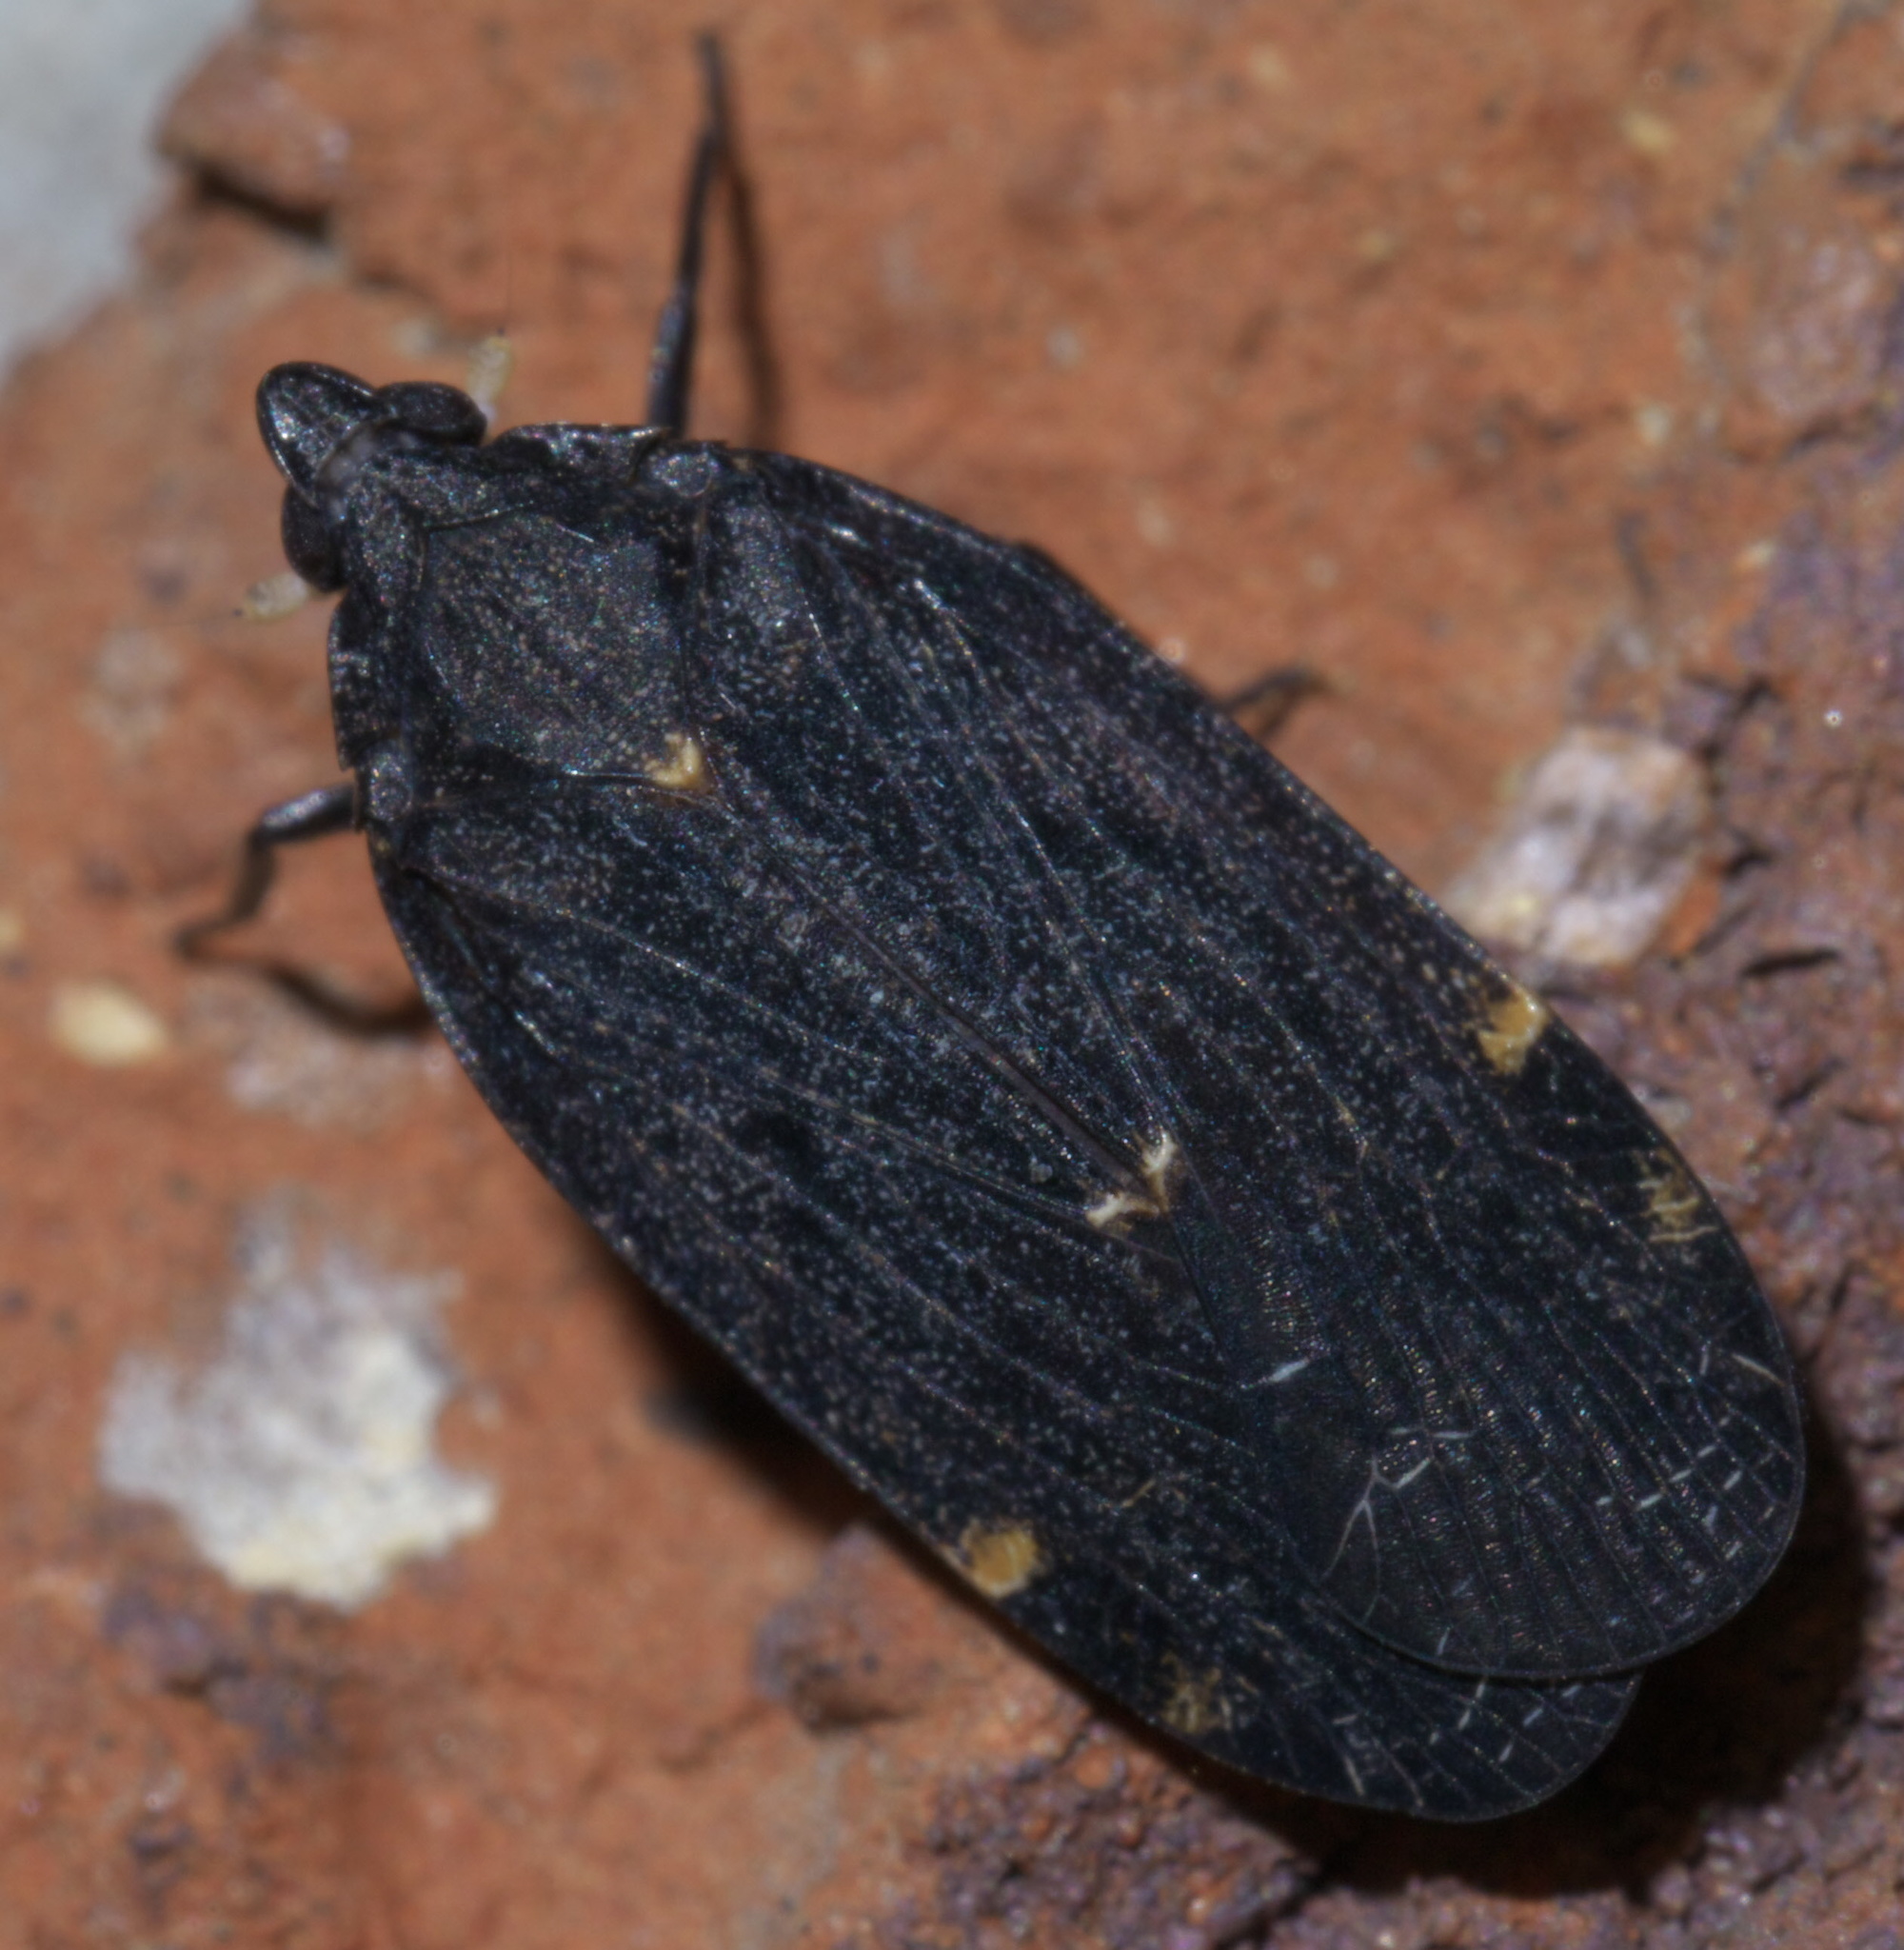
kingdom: Animalia
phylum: Arthropoda
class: Insecta
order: Hemiptera
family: Achilidae
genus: Cixidia
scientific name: Cixidia opaca
